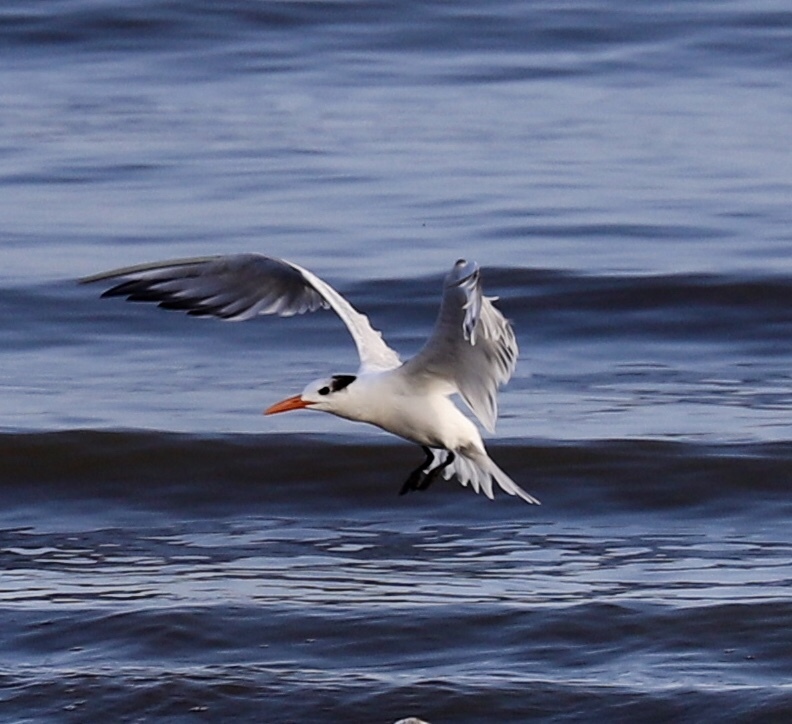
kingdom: Animalia
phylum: Chordata
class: Aves
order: Charadriiformes
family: Laridae
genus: Thalasseus
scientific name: Thalasseus maximus
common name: Royal tern
